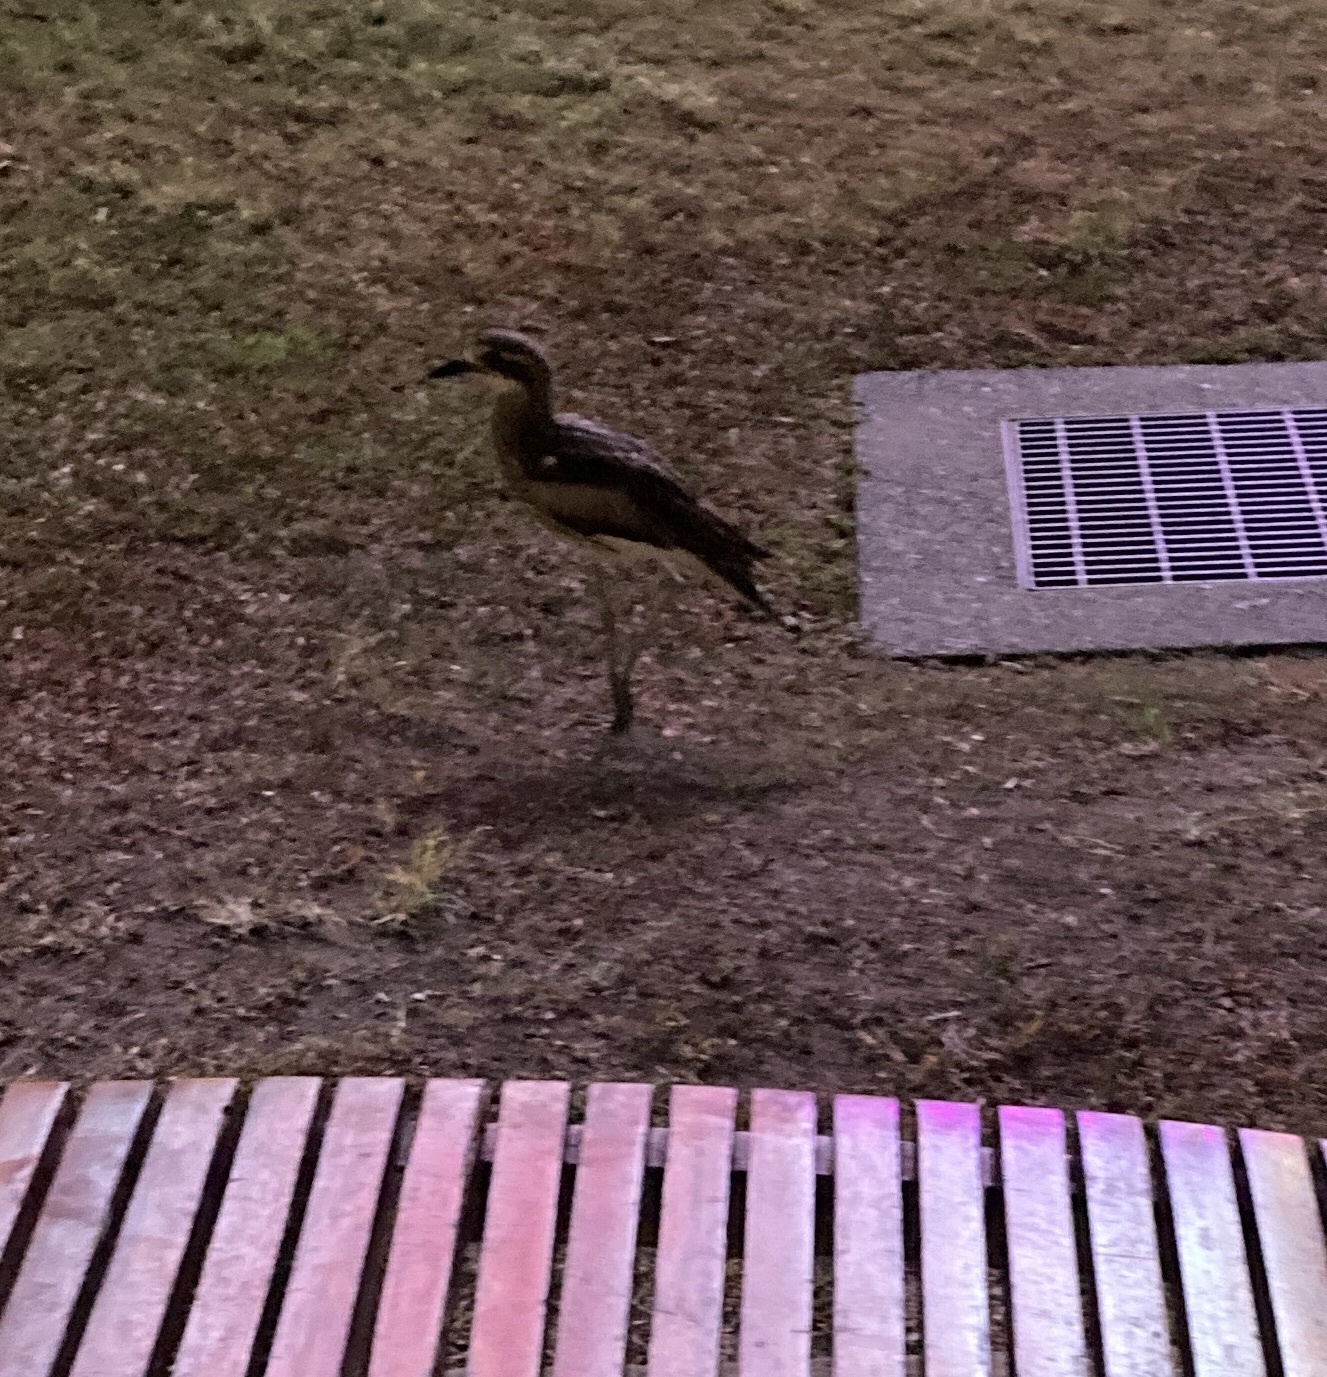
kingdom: Animalia
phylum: Chordata
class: Aves
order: Charadriiformes
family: Burhinidae
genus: Burhinus
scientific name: Burhinus grallarius
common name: Bush stone-curlew
